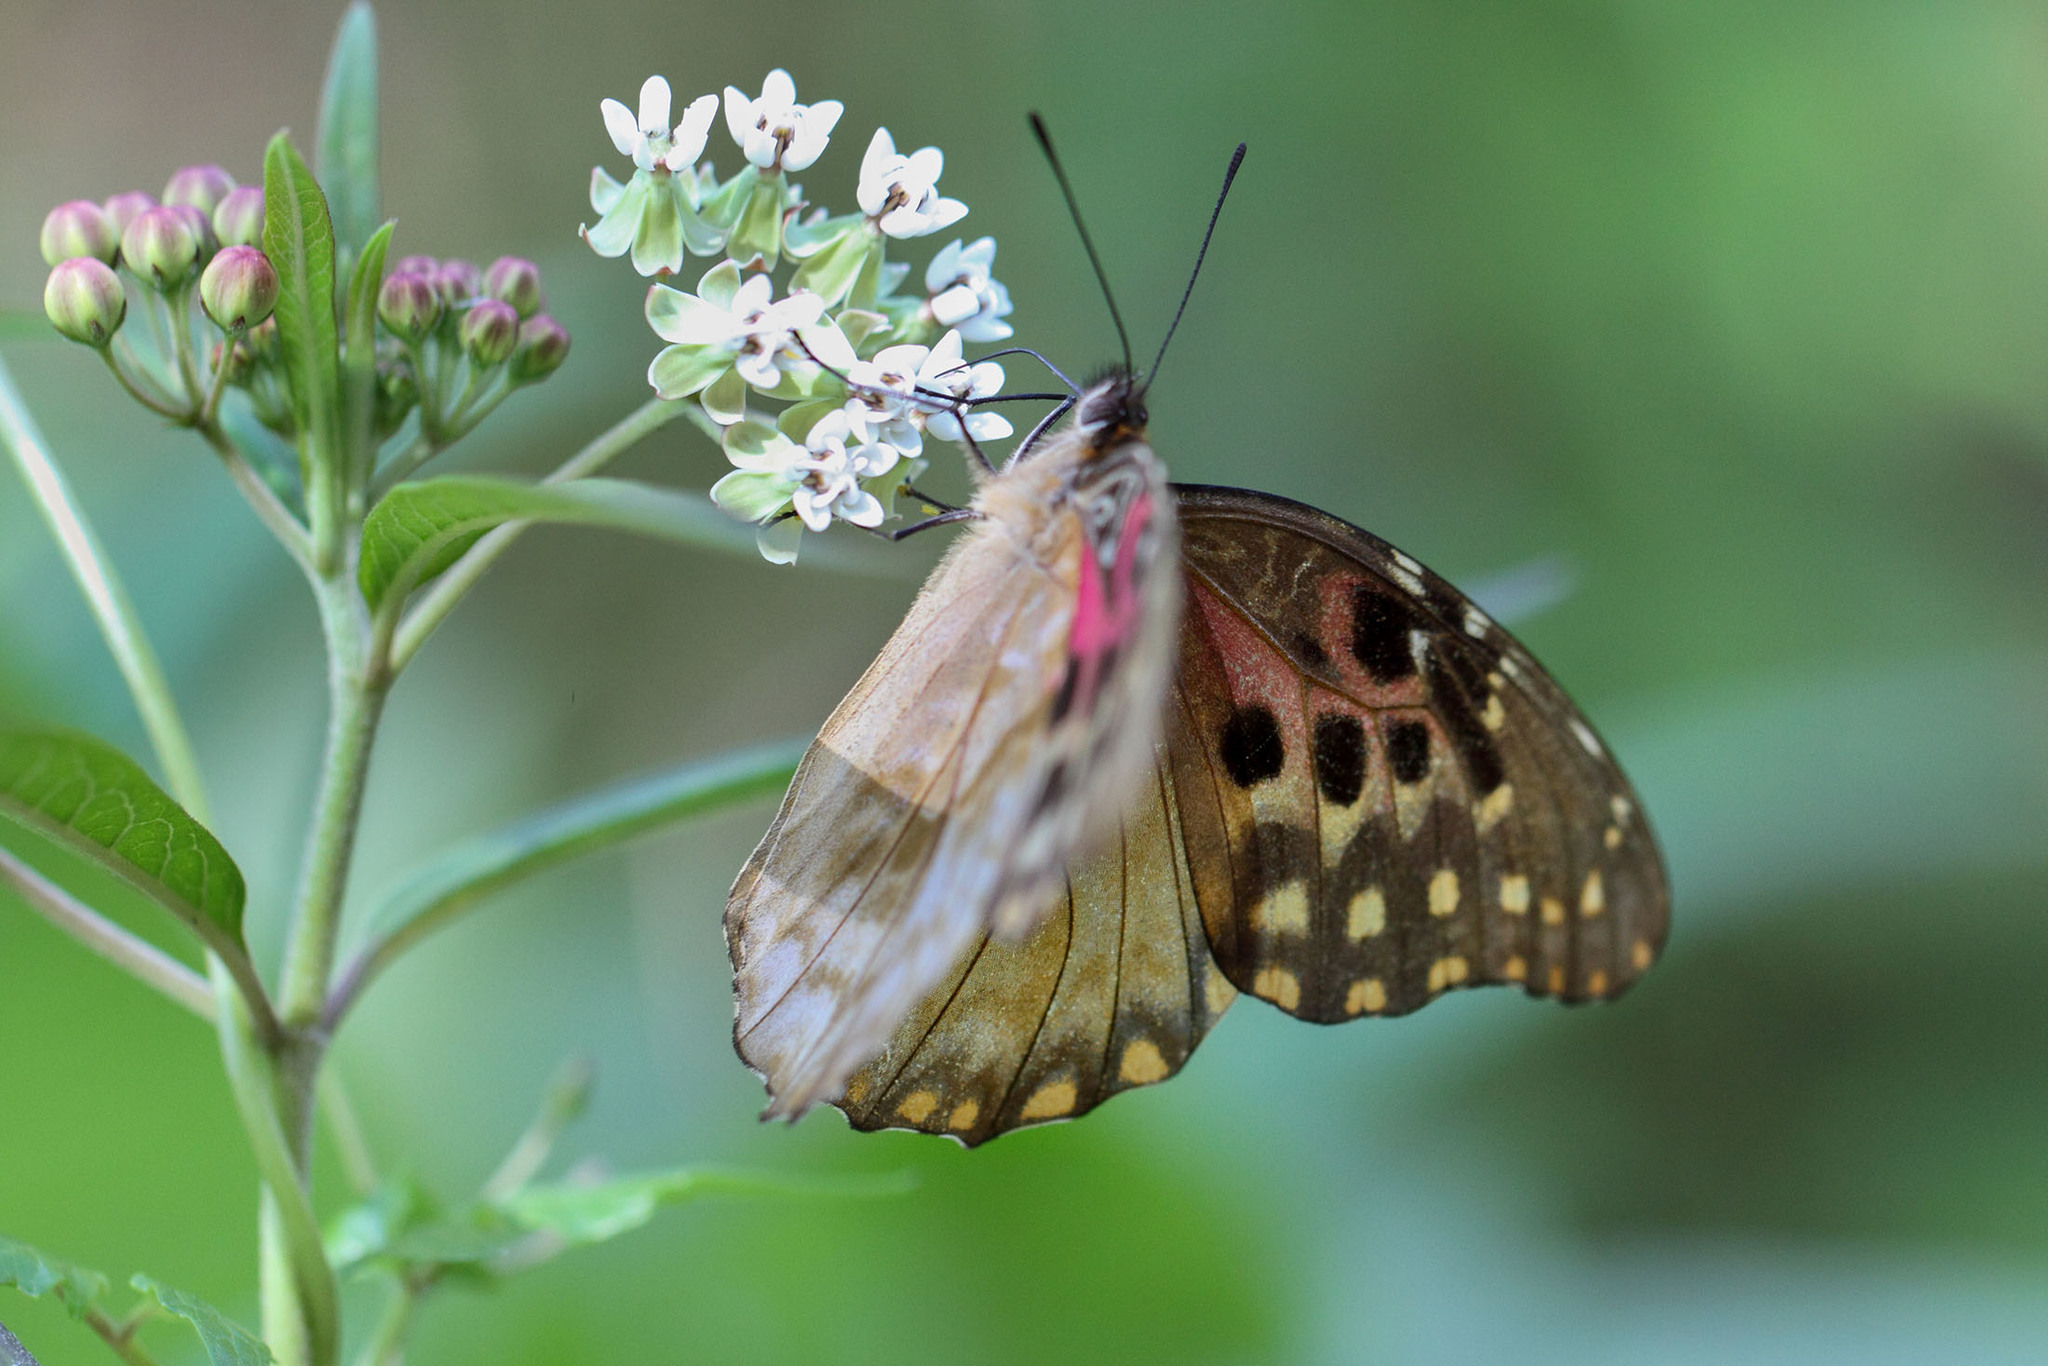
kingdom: Plantae
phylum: Tracheophyta
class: Magnoliopsida
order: Gentianales
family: Apocynaceae
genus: Asclepias
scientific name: Asclepias nivea
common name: Ipecacuanha
